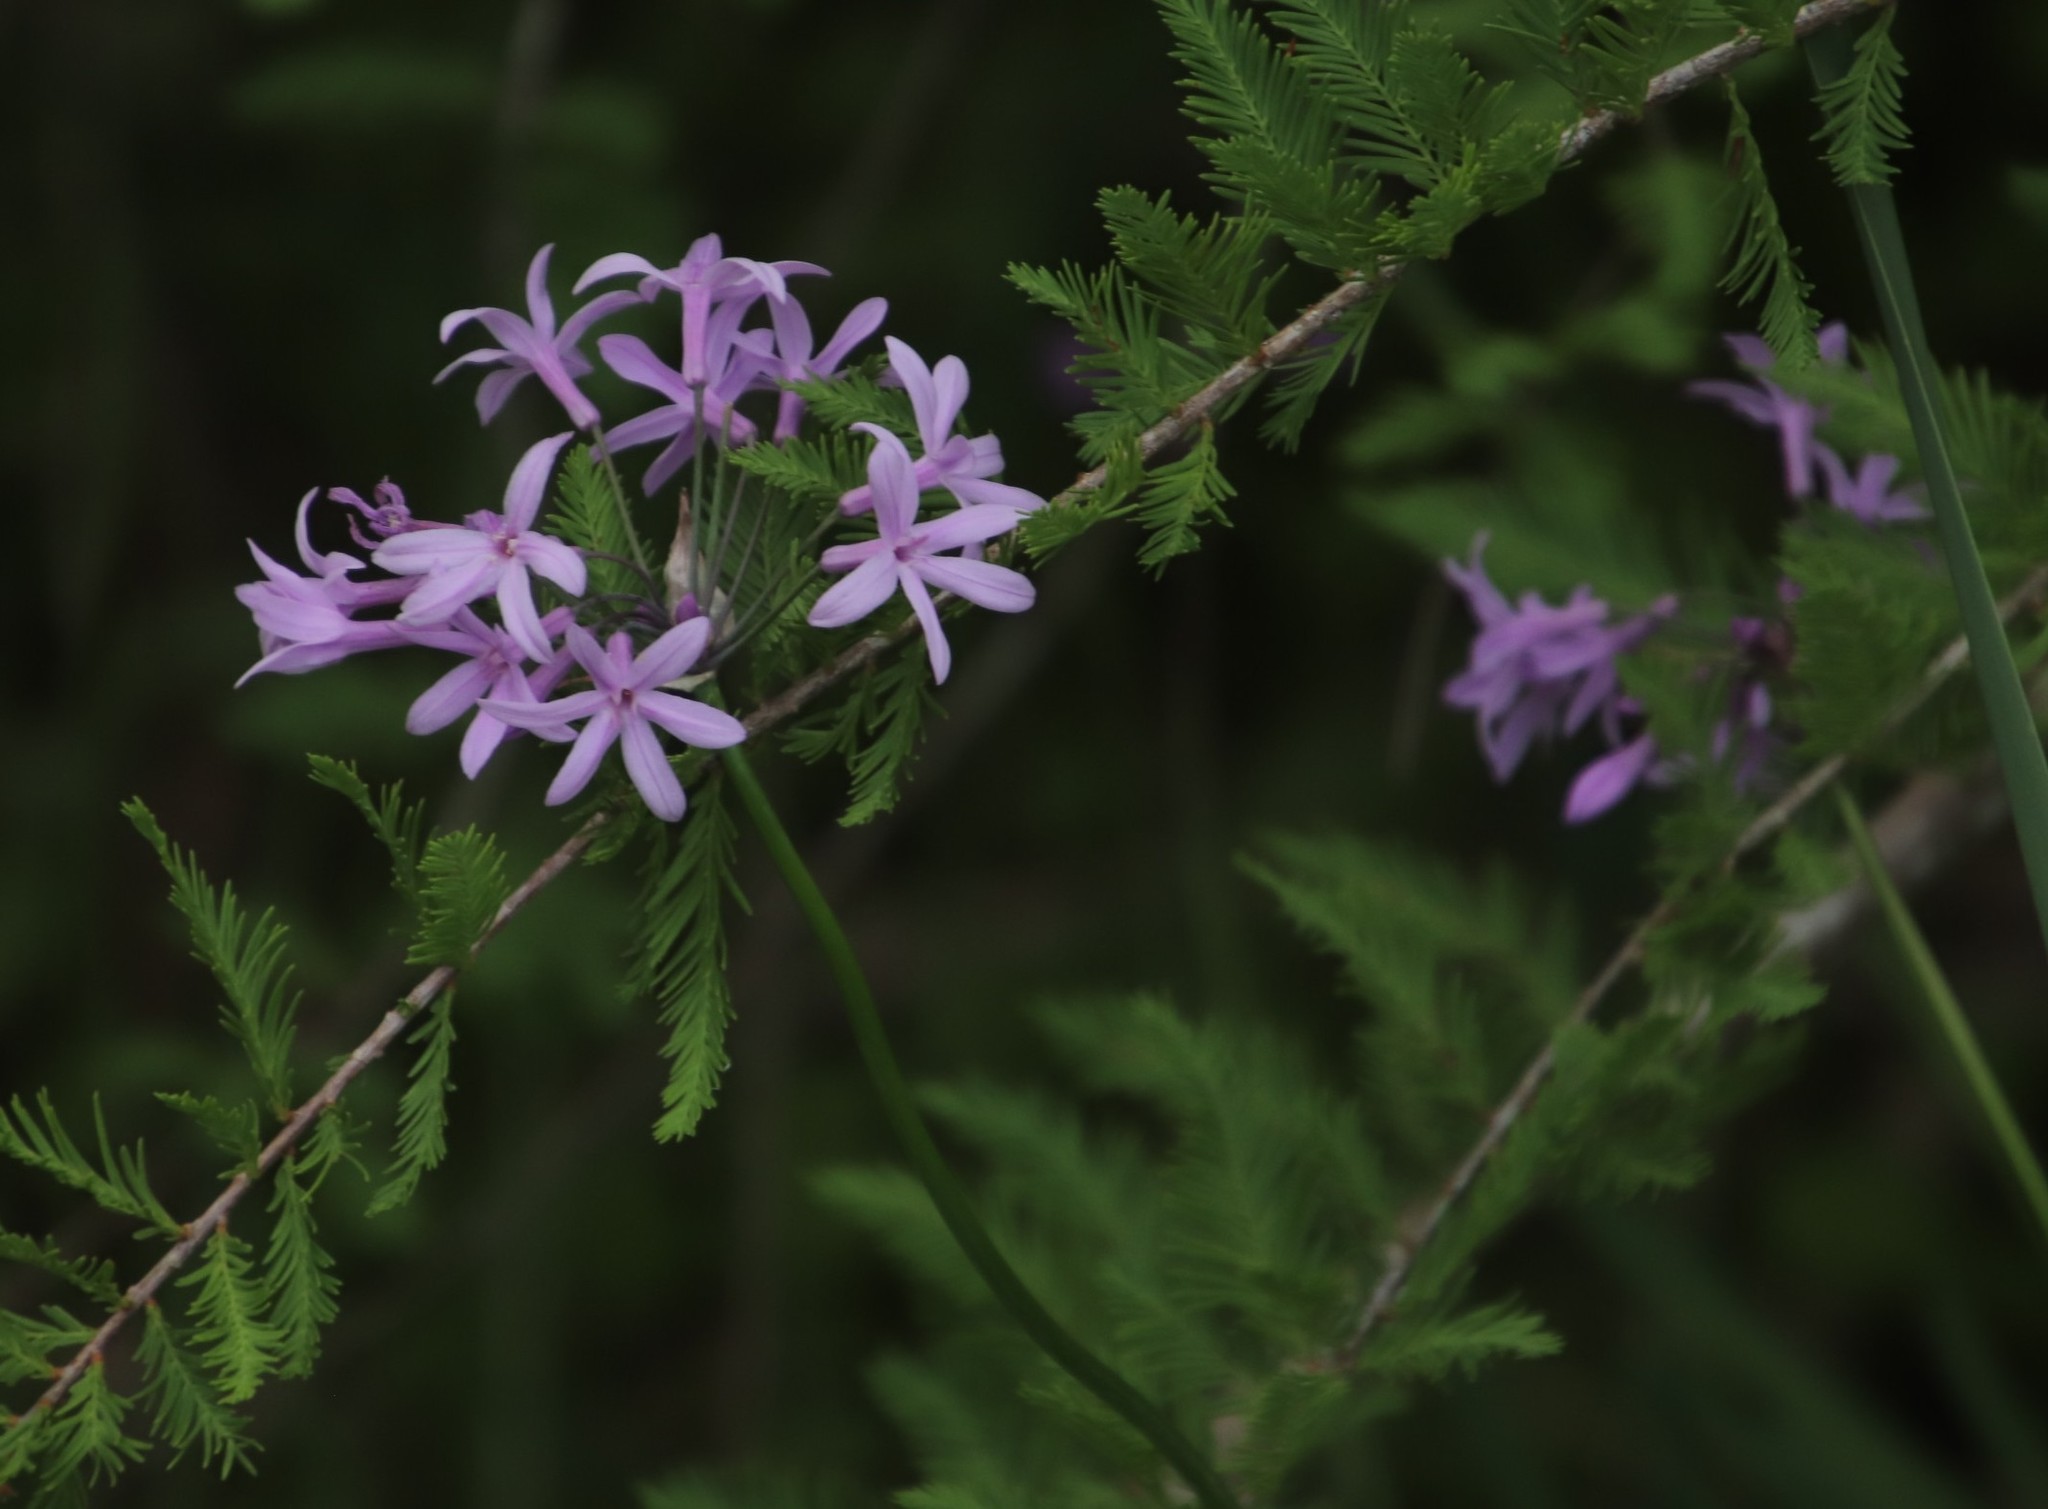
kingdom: Plantae
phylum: Tracheophyta
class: Liliopsida
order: Asparagales
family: Amaryllidaceae
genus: Tulbaghia
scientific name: Tulbaghia violacea
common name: Society garlic
